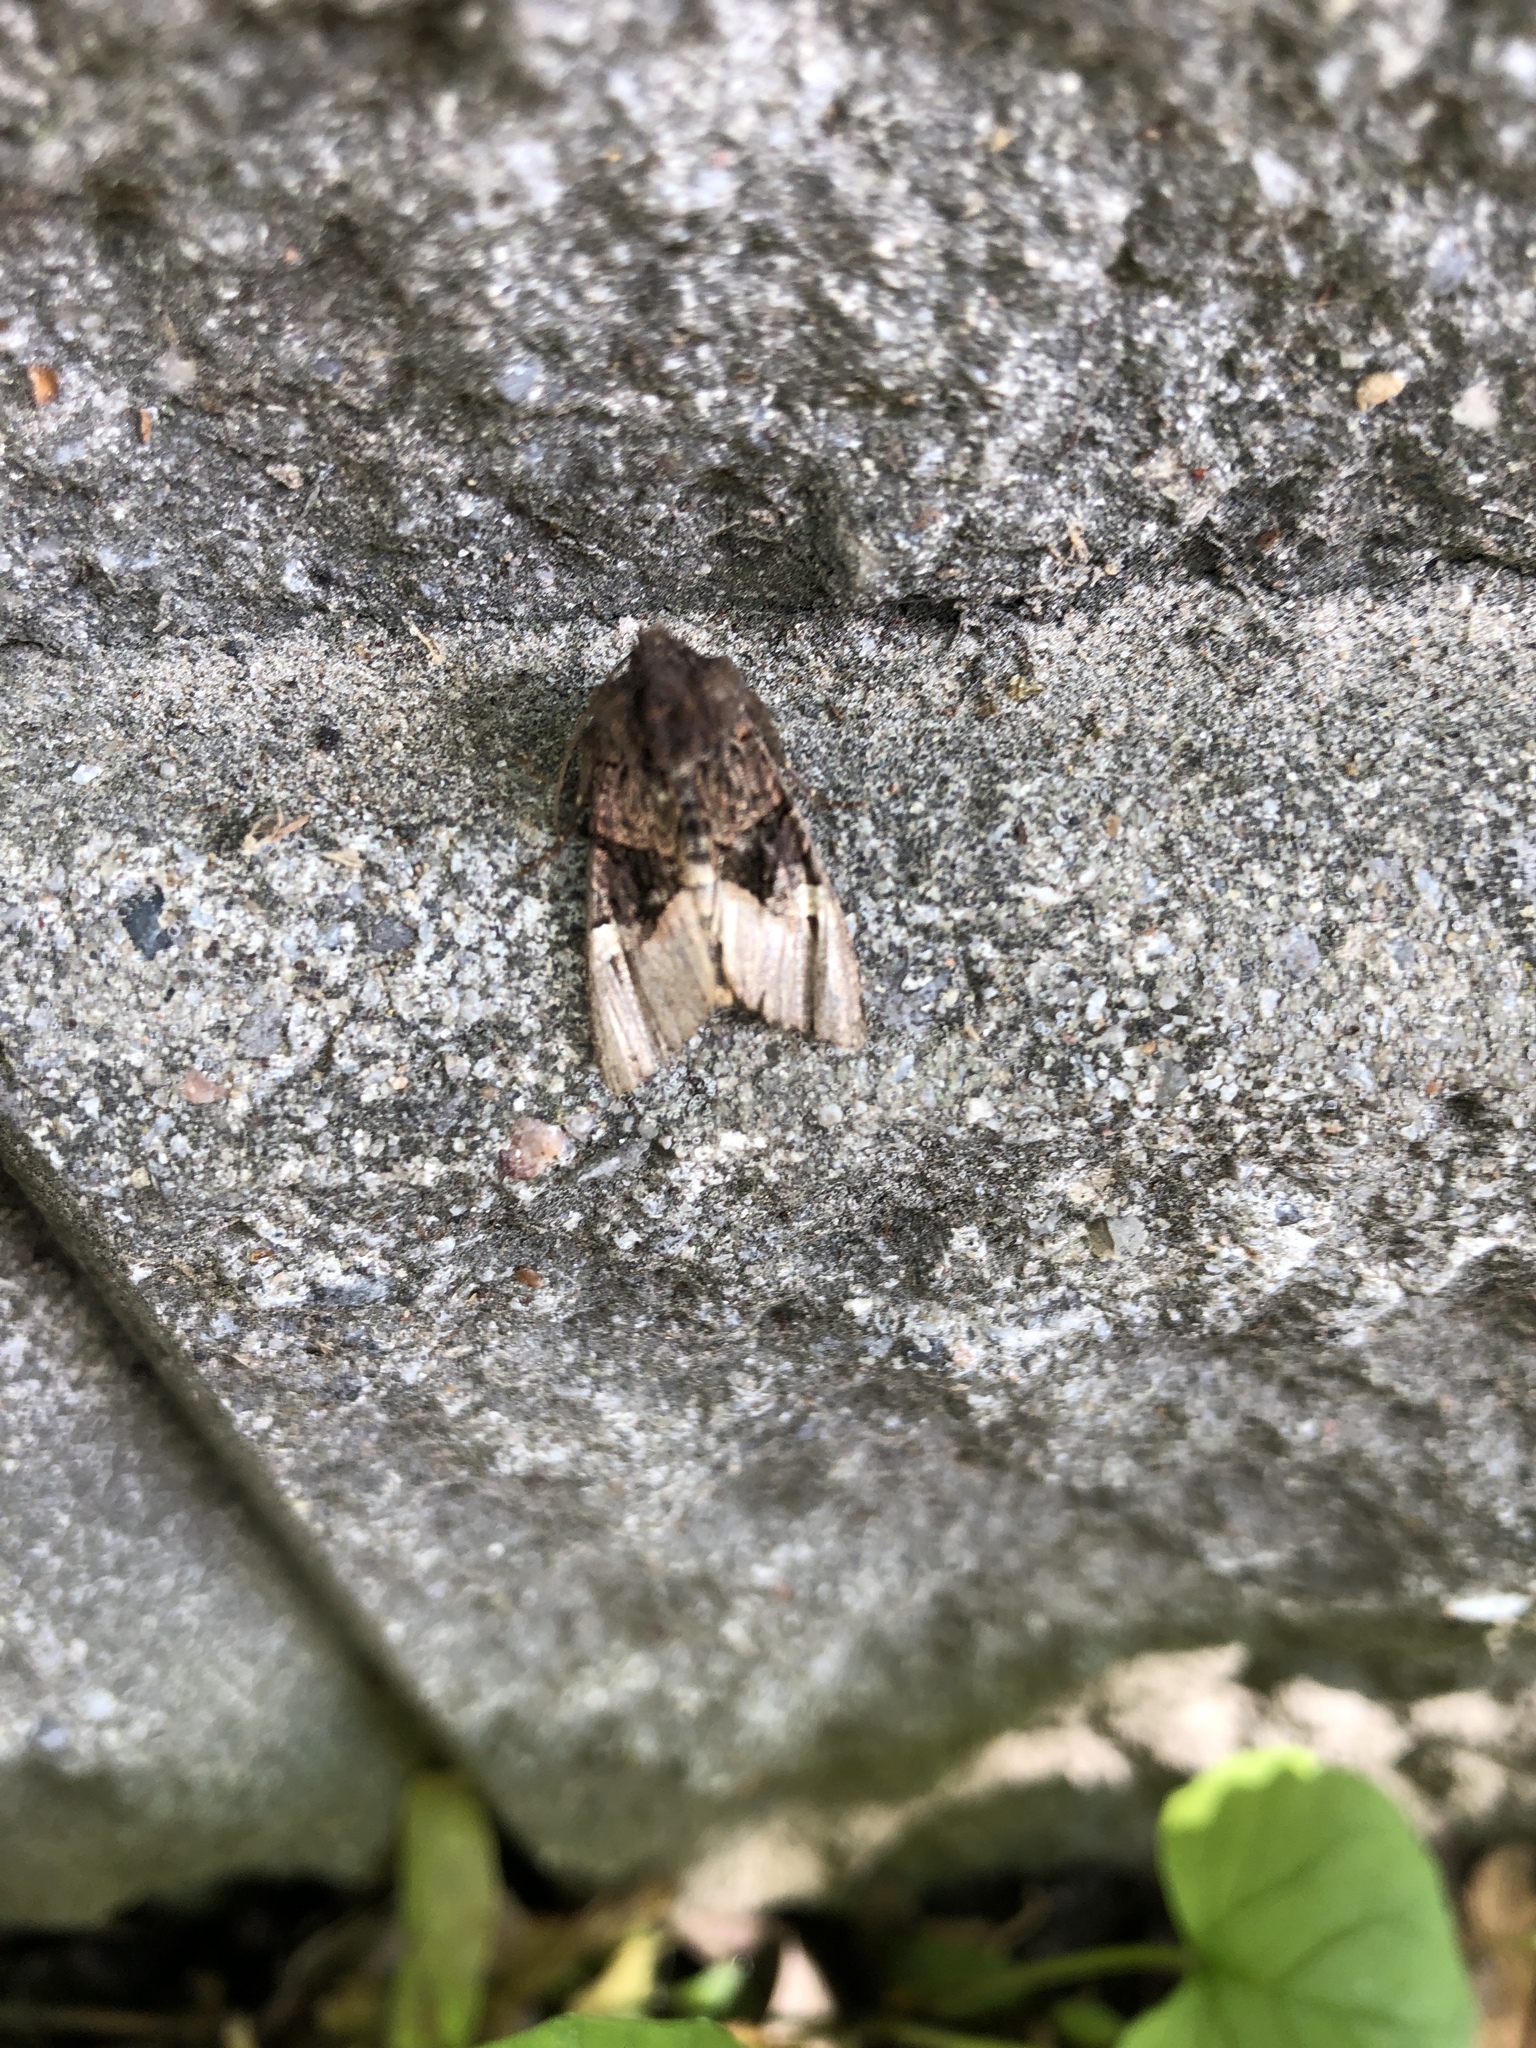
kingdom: Animalia
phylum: Arthropoda
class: Insecta
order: Lepidoptera
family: Noctuidae
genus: Euplexia
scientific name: Euplexia benesimilis
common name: American angle shades
